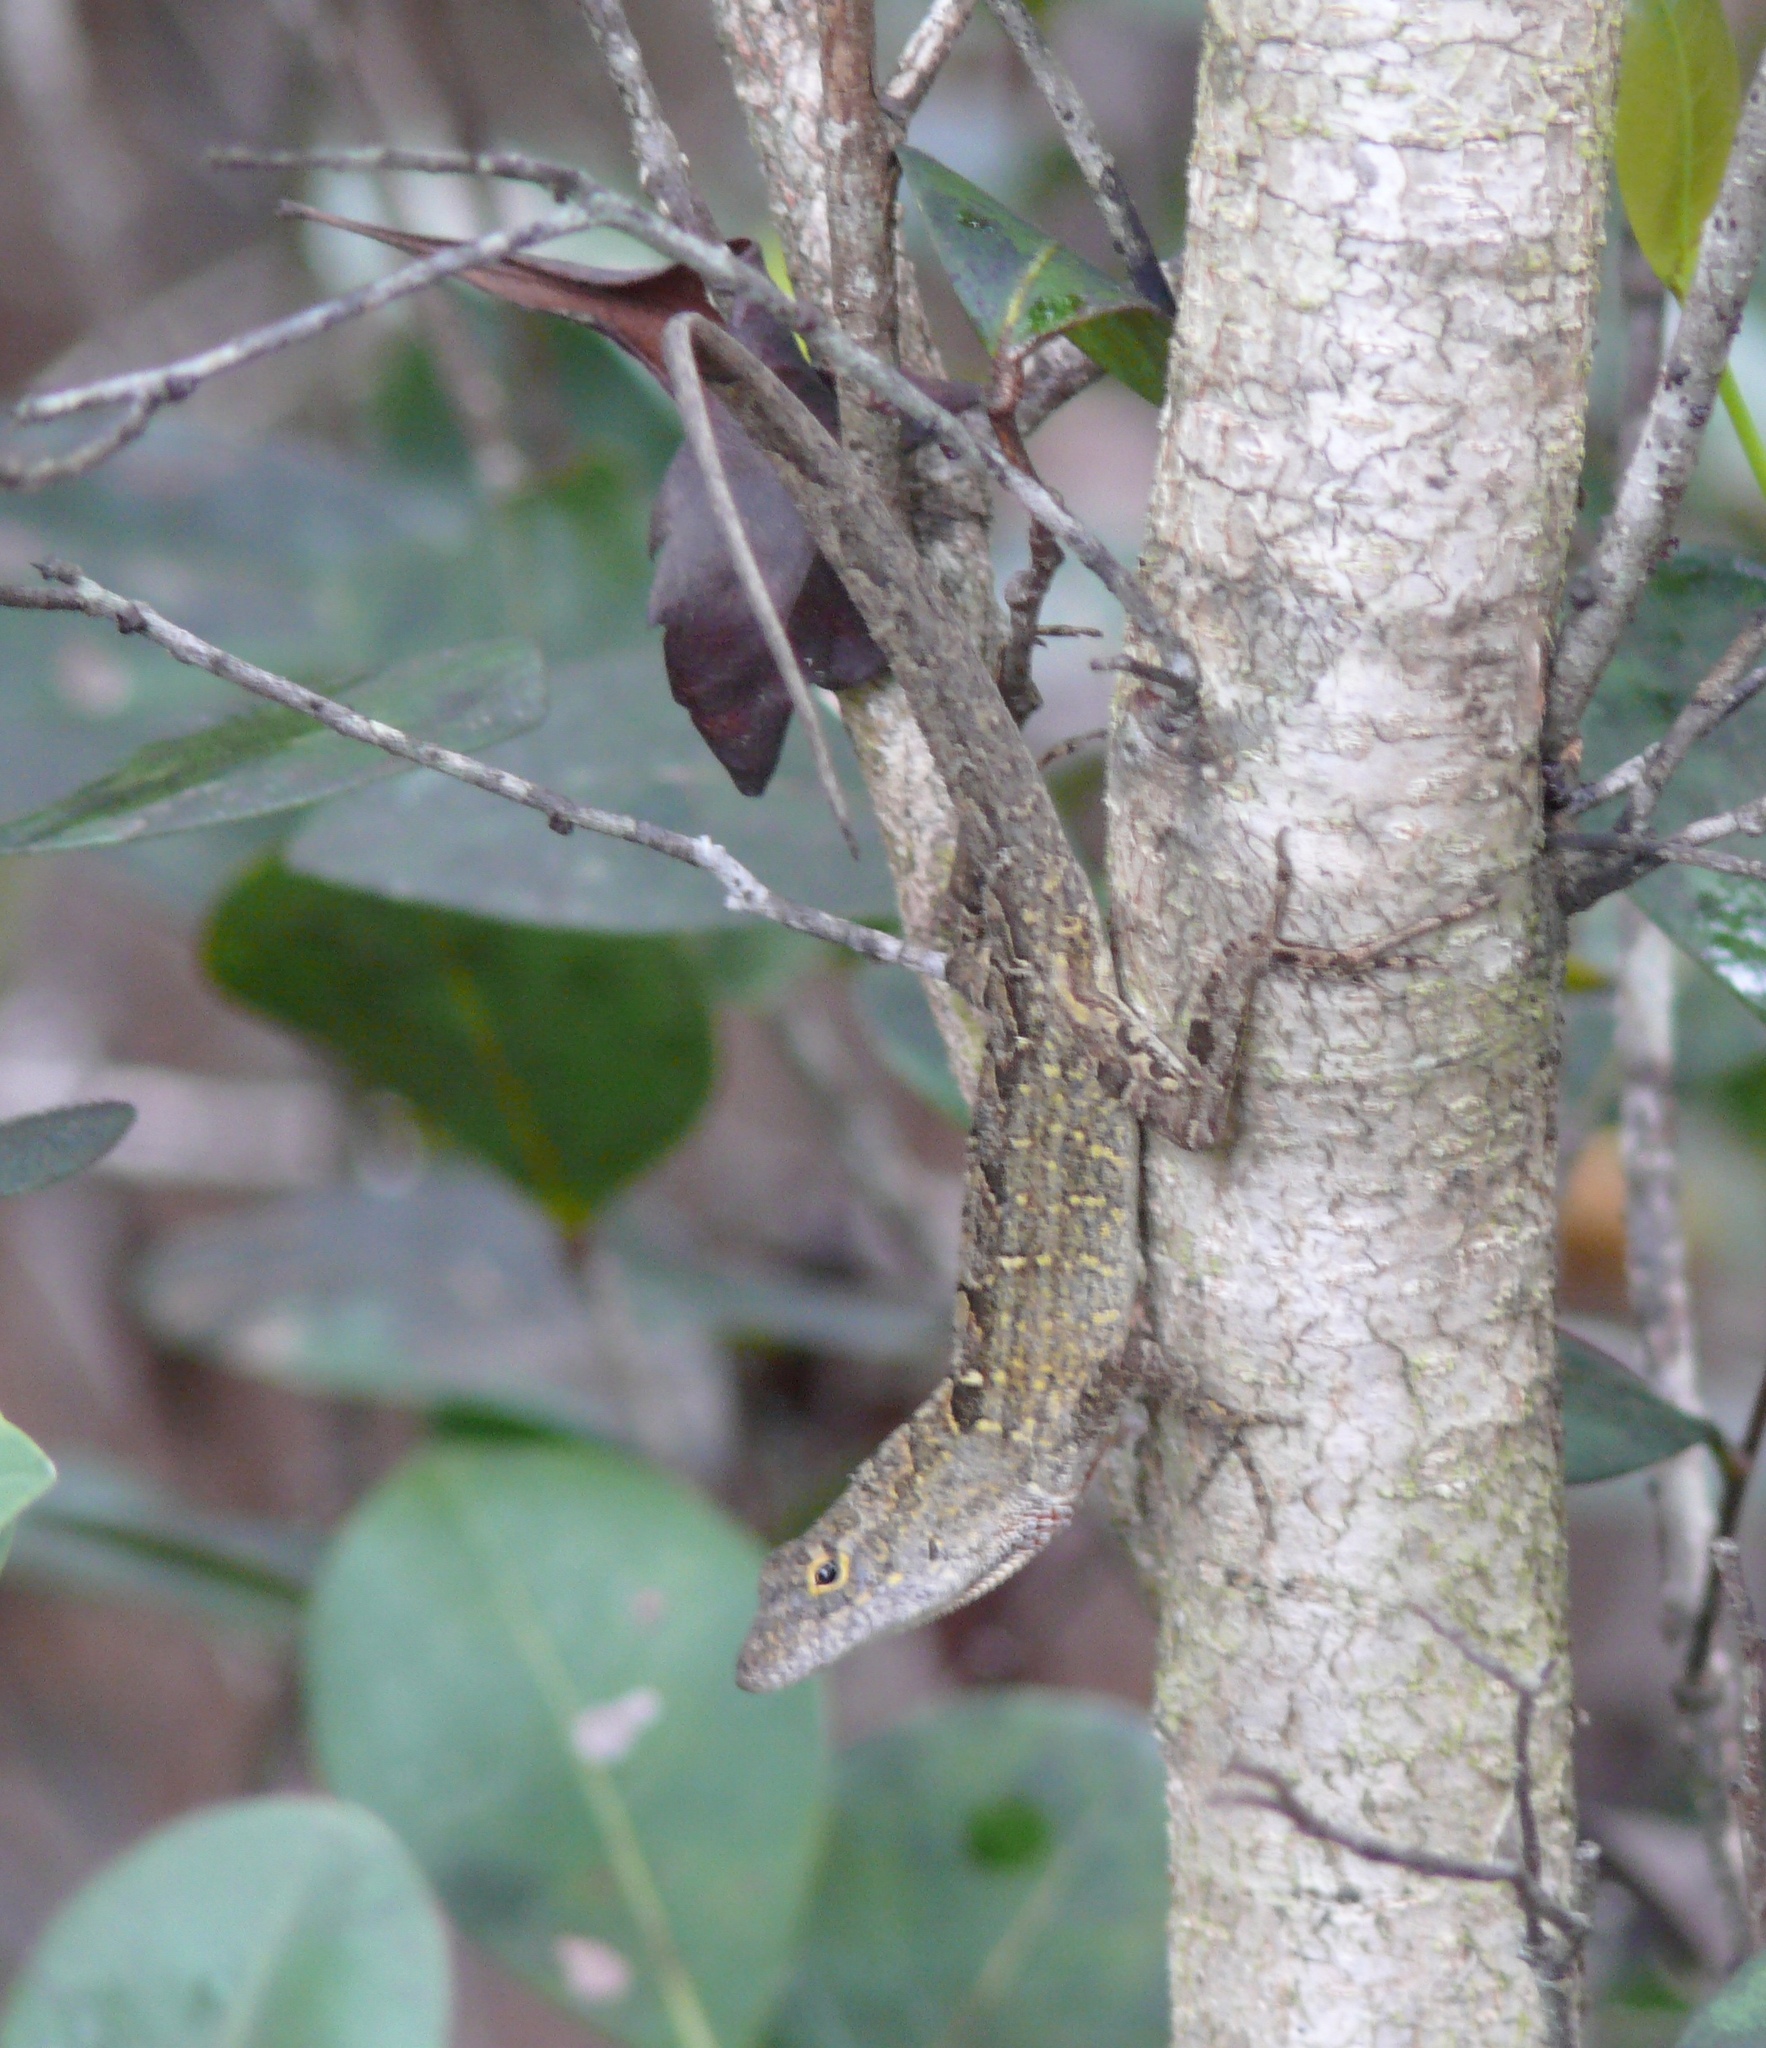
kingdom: Animalia
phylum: Chordata
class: Squamata
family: Dactyloidae
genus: Anolis
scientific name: Anolis sagrei
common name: Brown anole
